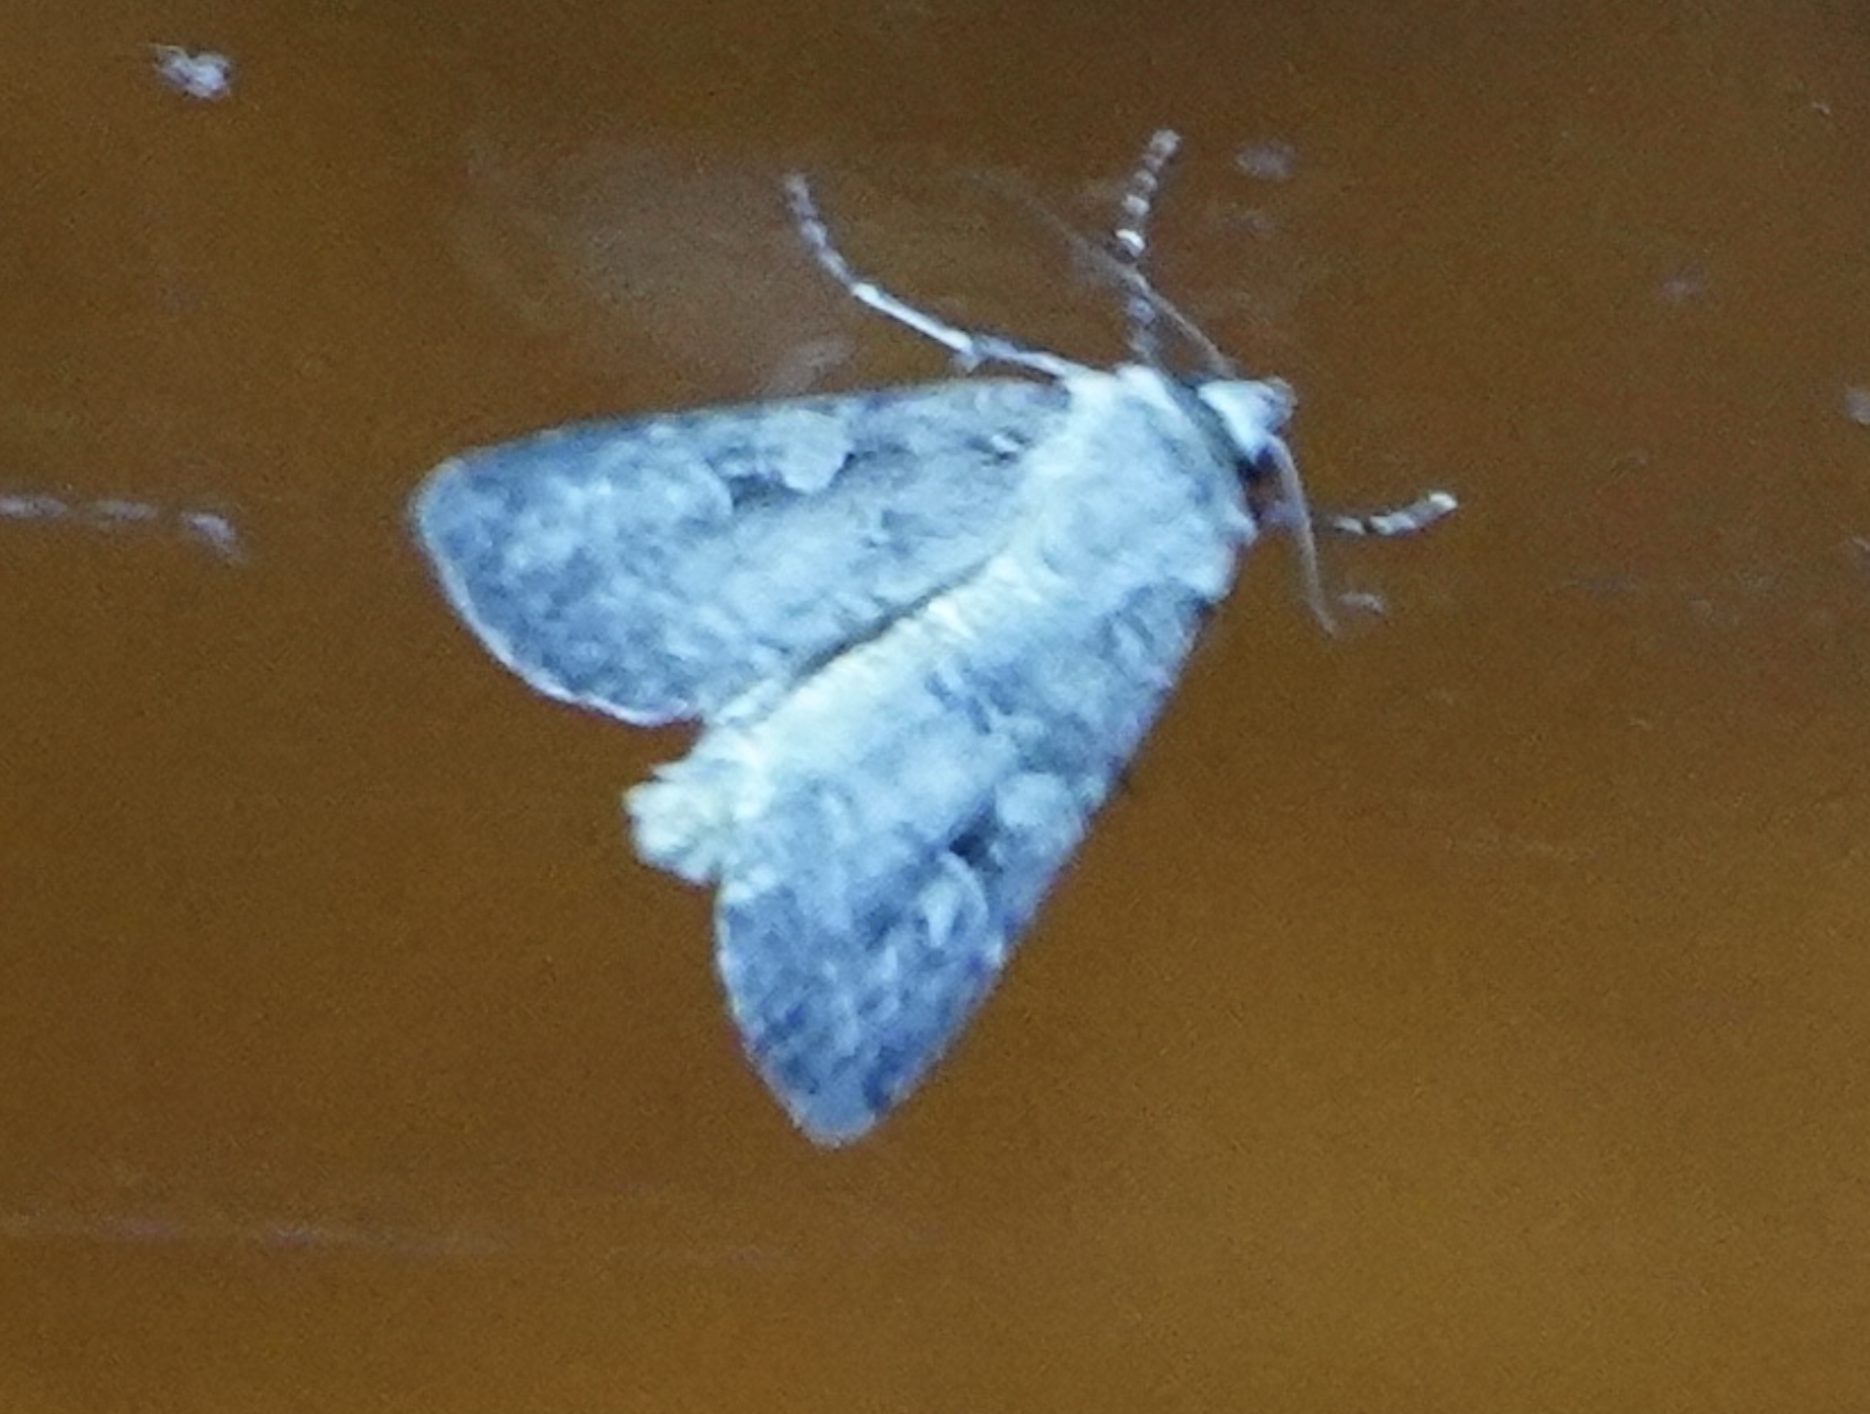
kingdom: Animalia
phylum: Arthropoda
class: Insecta
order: Lepidoptera
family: Noctuidae
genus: Euxoa
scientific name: Euxoa tessellata
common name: Striped cutworm
